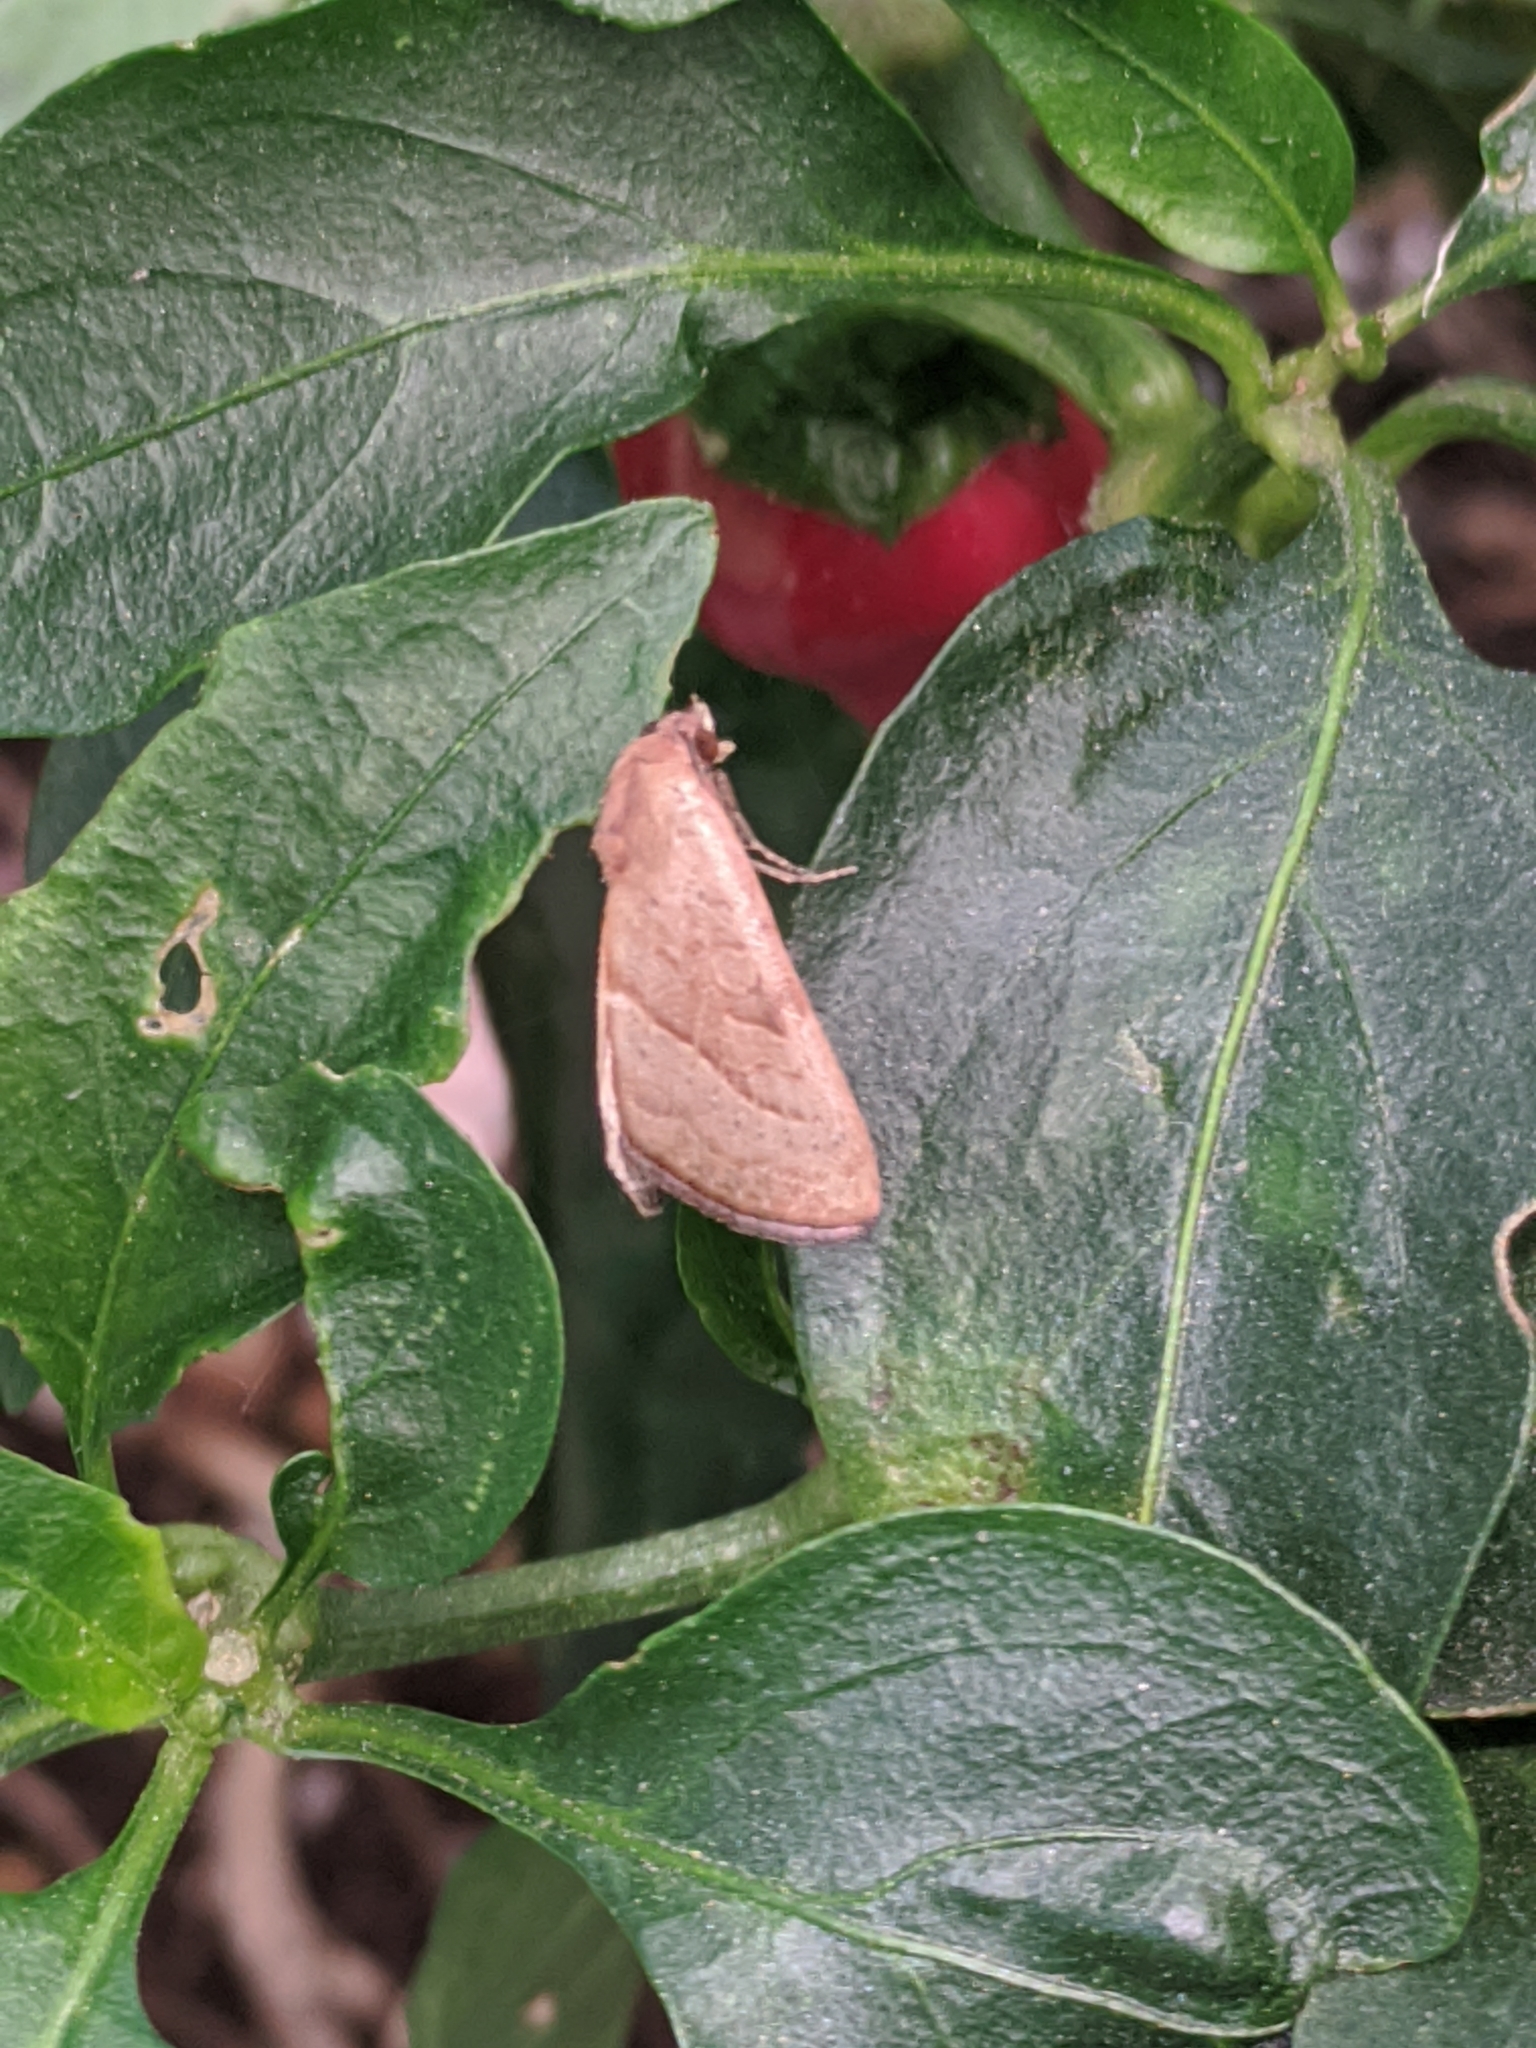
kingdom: Animalia
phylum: Arthropoda
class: Insecta
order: Lepidoptera
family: Noctuidae
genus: Galgula
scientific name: Galgula partita
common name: Wedgeling
